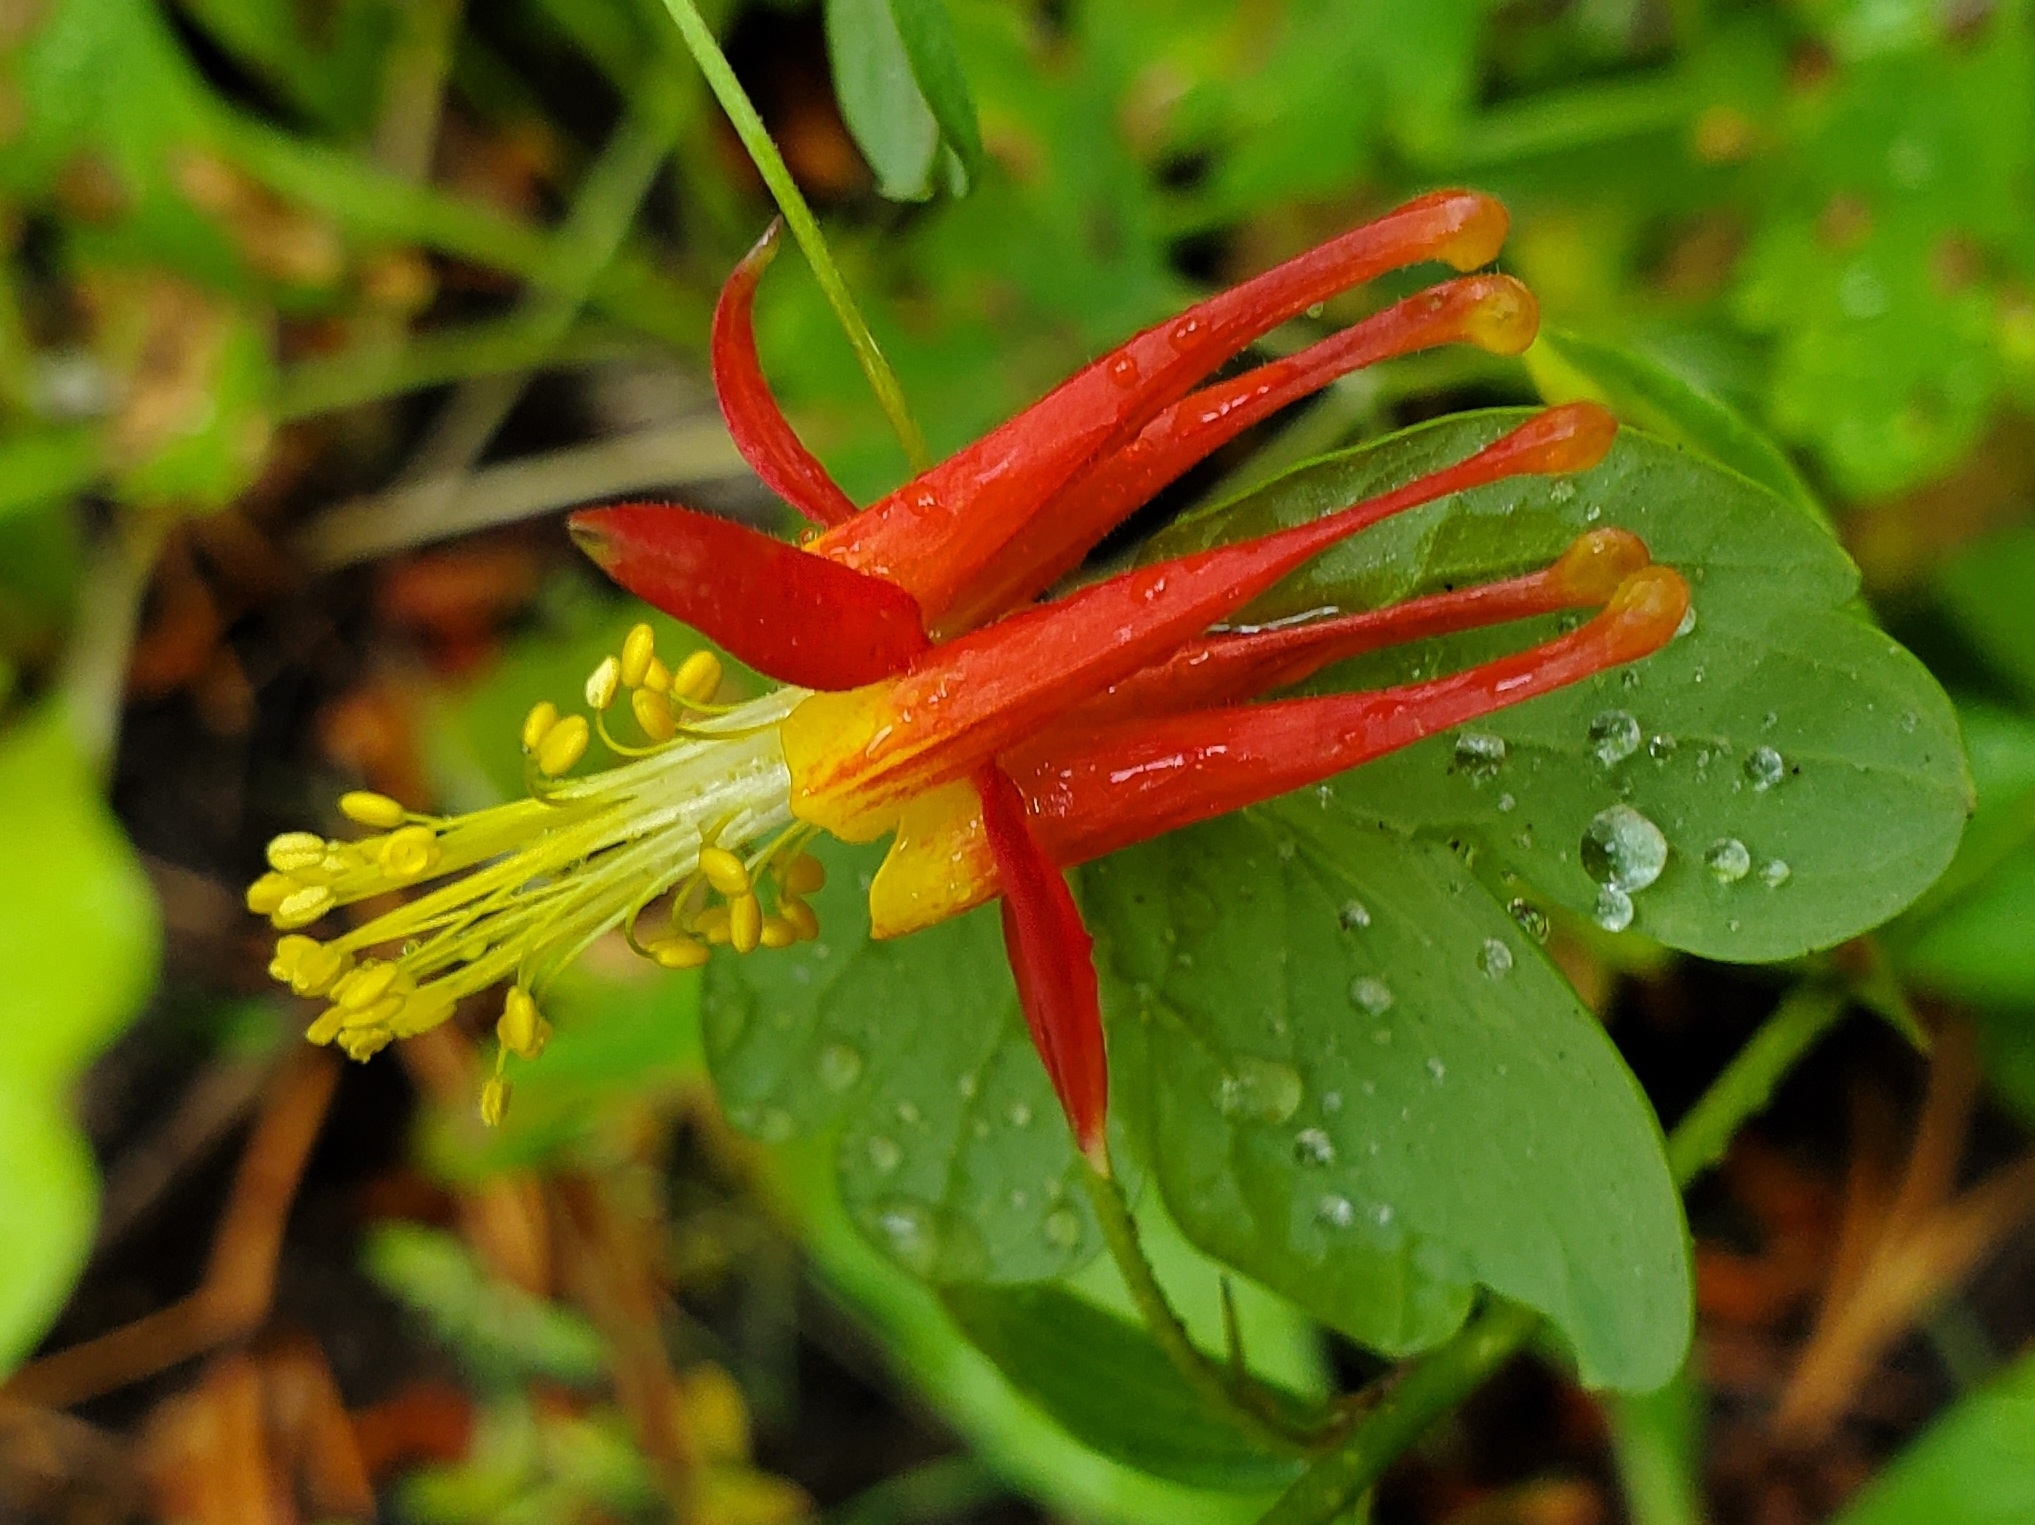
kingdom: Plantae
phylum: Tracheophyta
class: Magnoliopsida
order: Ranunculales
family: Ranunculaceae
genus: Aquilegia
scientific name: Aquilegia formosa
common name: Sitka columbine
